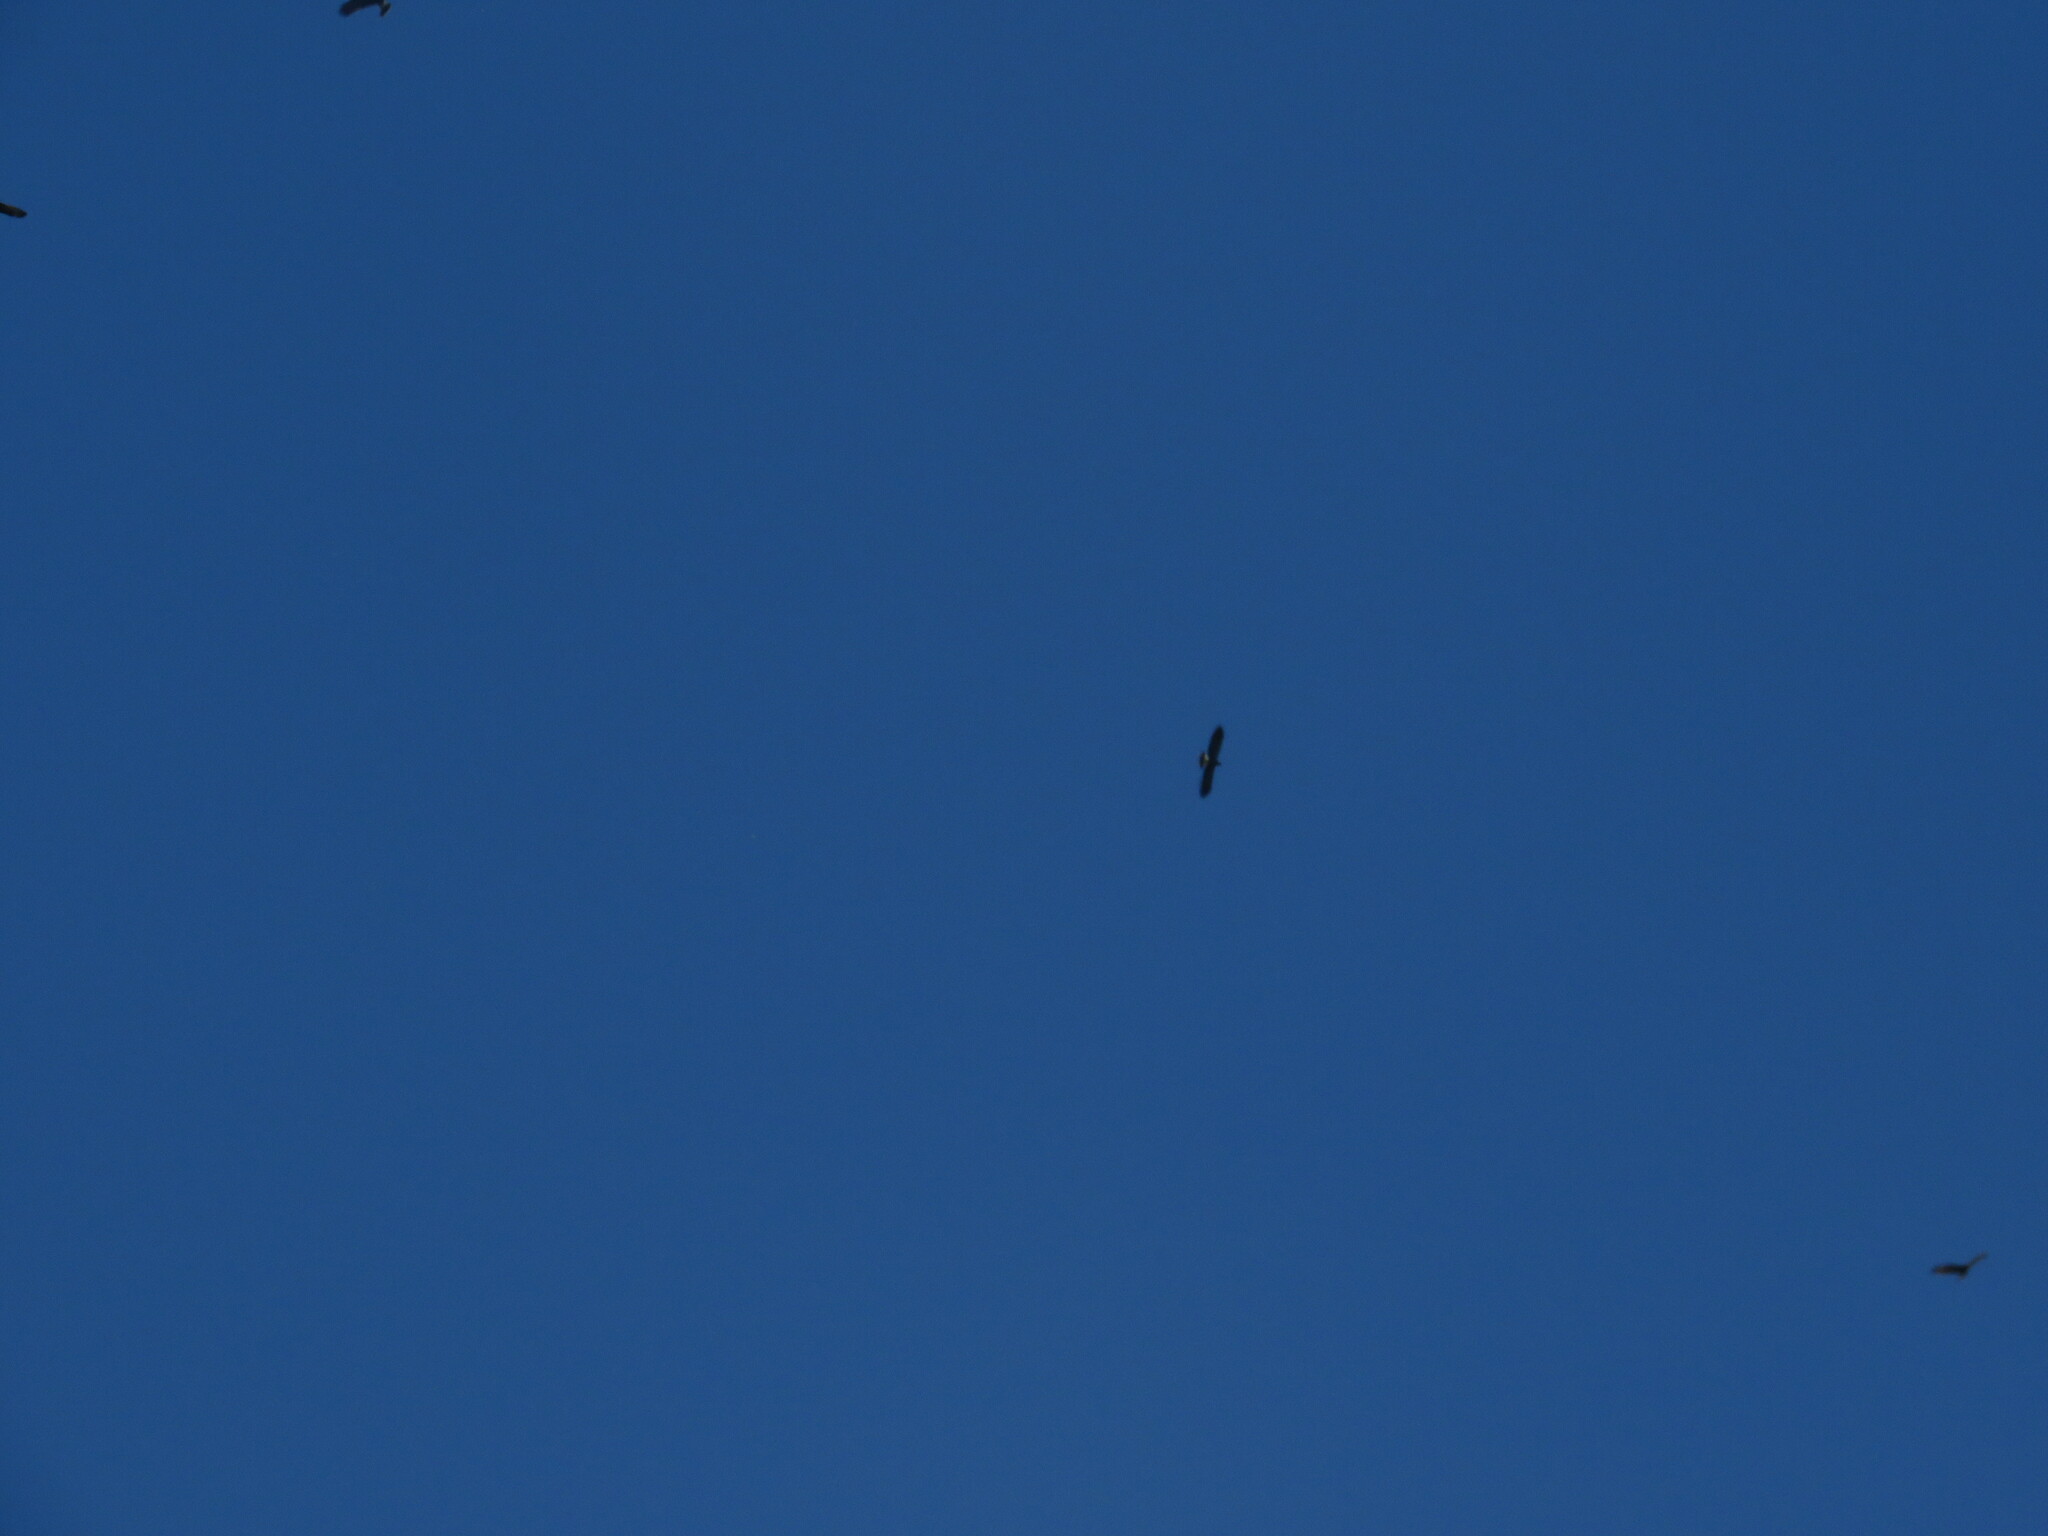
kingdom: Animalia
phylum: Chordata
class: Aves
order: Accipitriformes
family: Accipitridae
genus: Rostrhamus
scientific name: Rostrhamus sociabilis
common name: Snail kite
